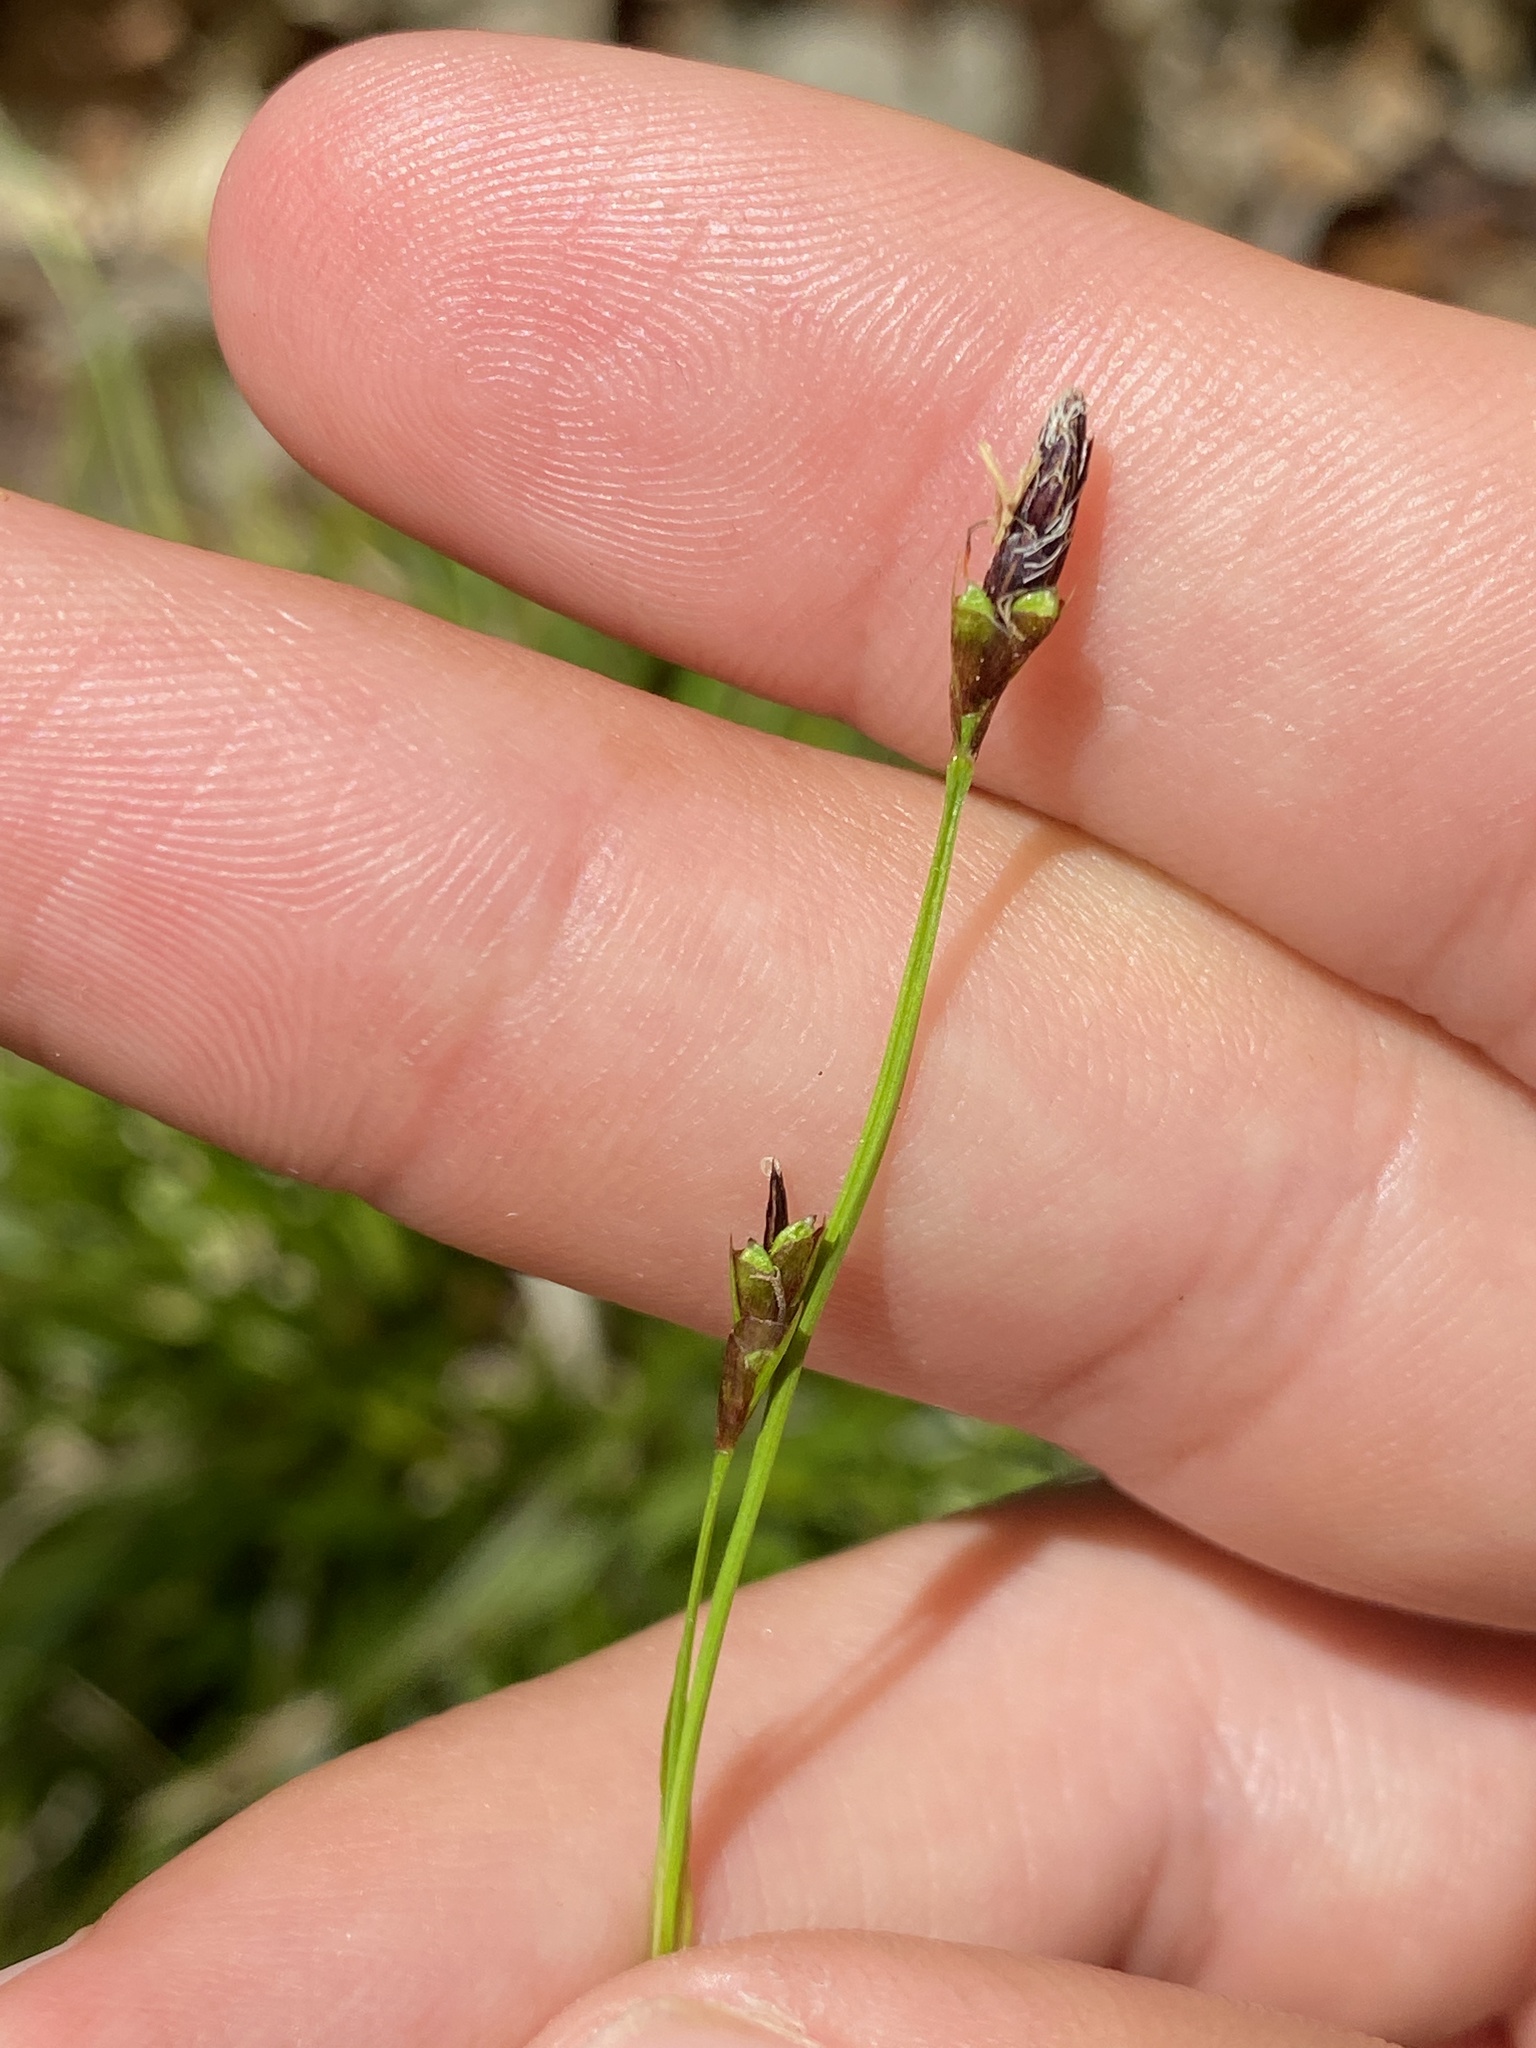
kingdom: Plantae
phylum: Tracheophyta
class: Liliopsida
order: Poales
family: Cyperaceae
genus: Carex
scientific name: Carex pedunculata
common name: Pedunculate sedge
